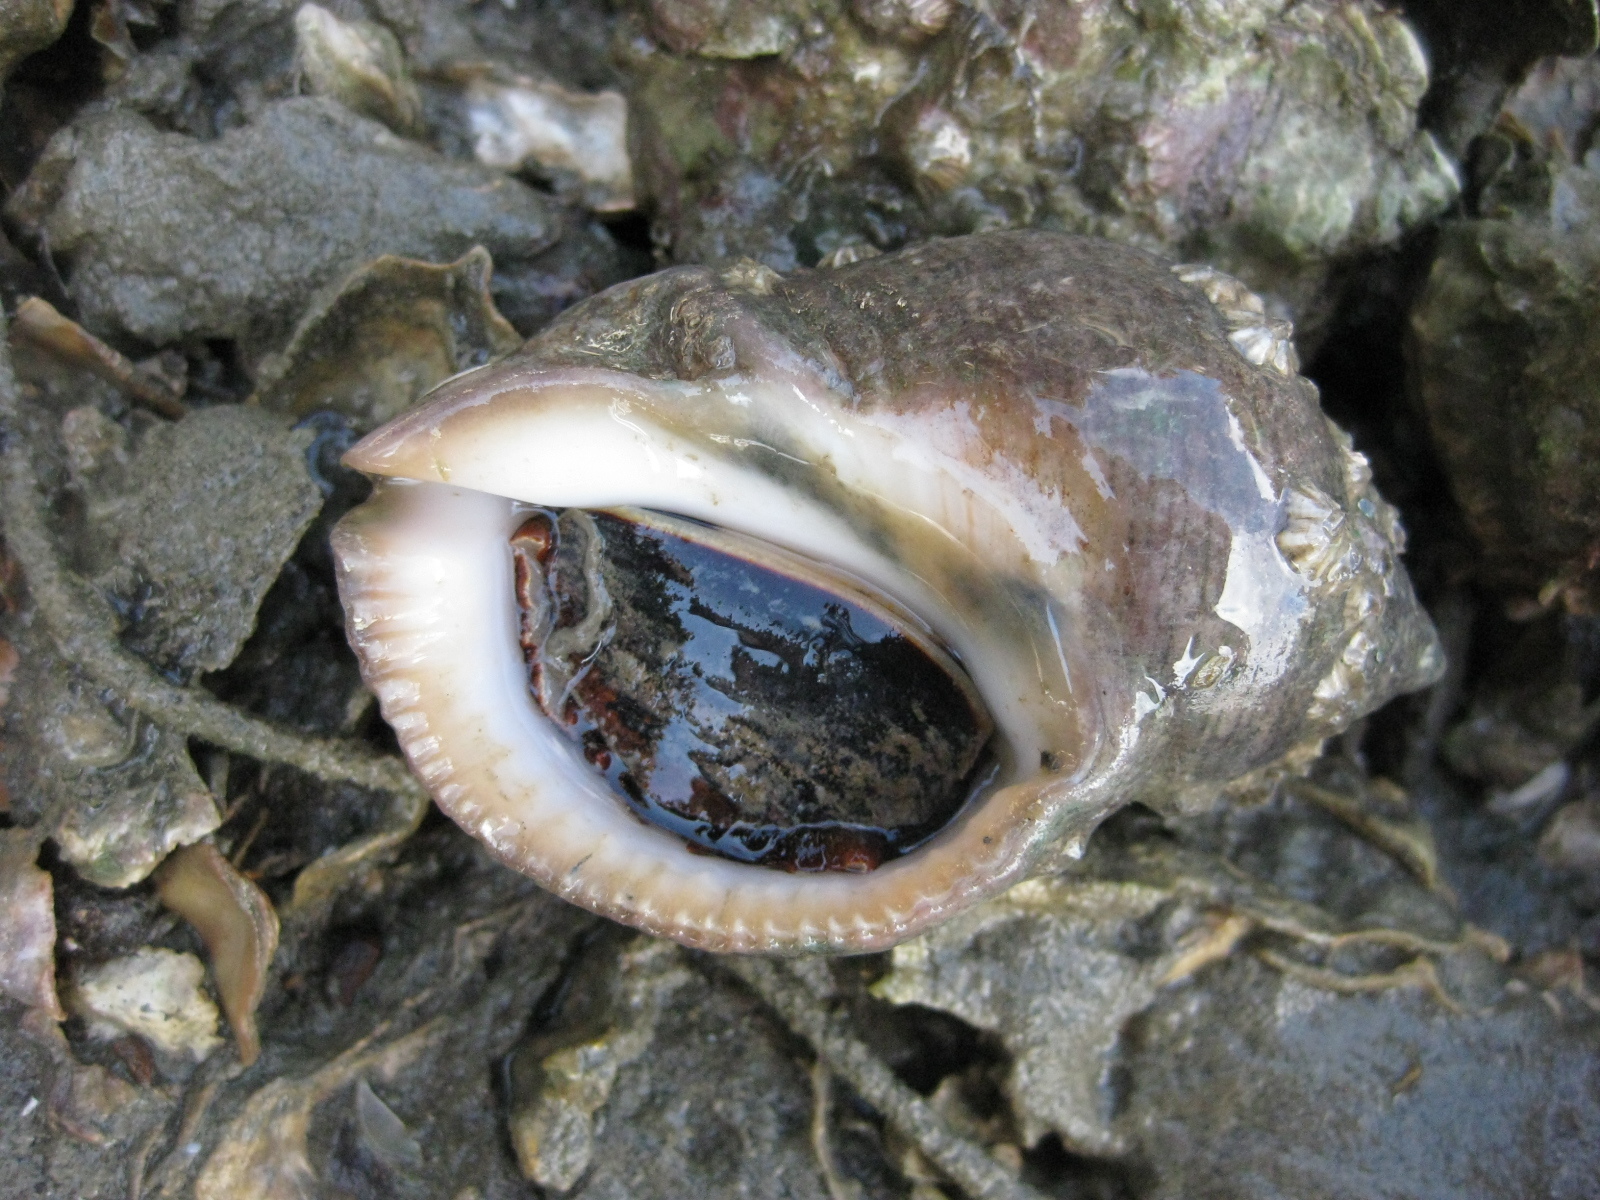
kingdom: Animalia
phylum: Mollusca
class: Gastropoda
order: Neogastropoda
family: Muricidae
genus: Dicathais
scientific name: Dicathais orbita
